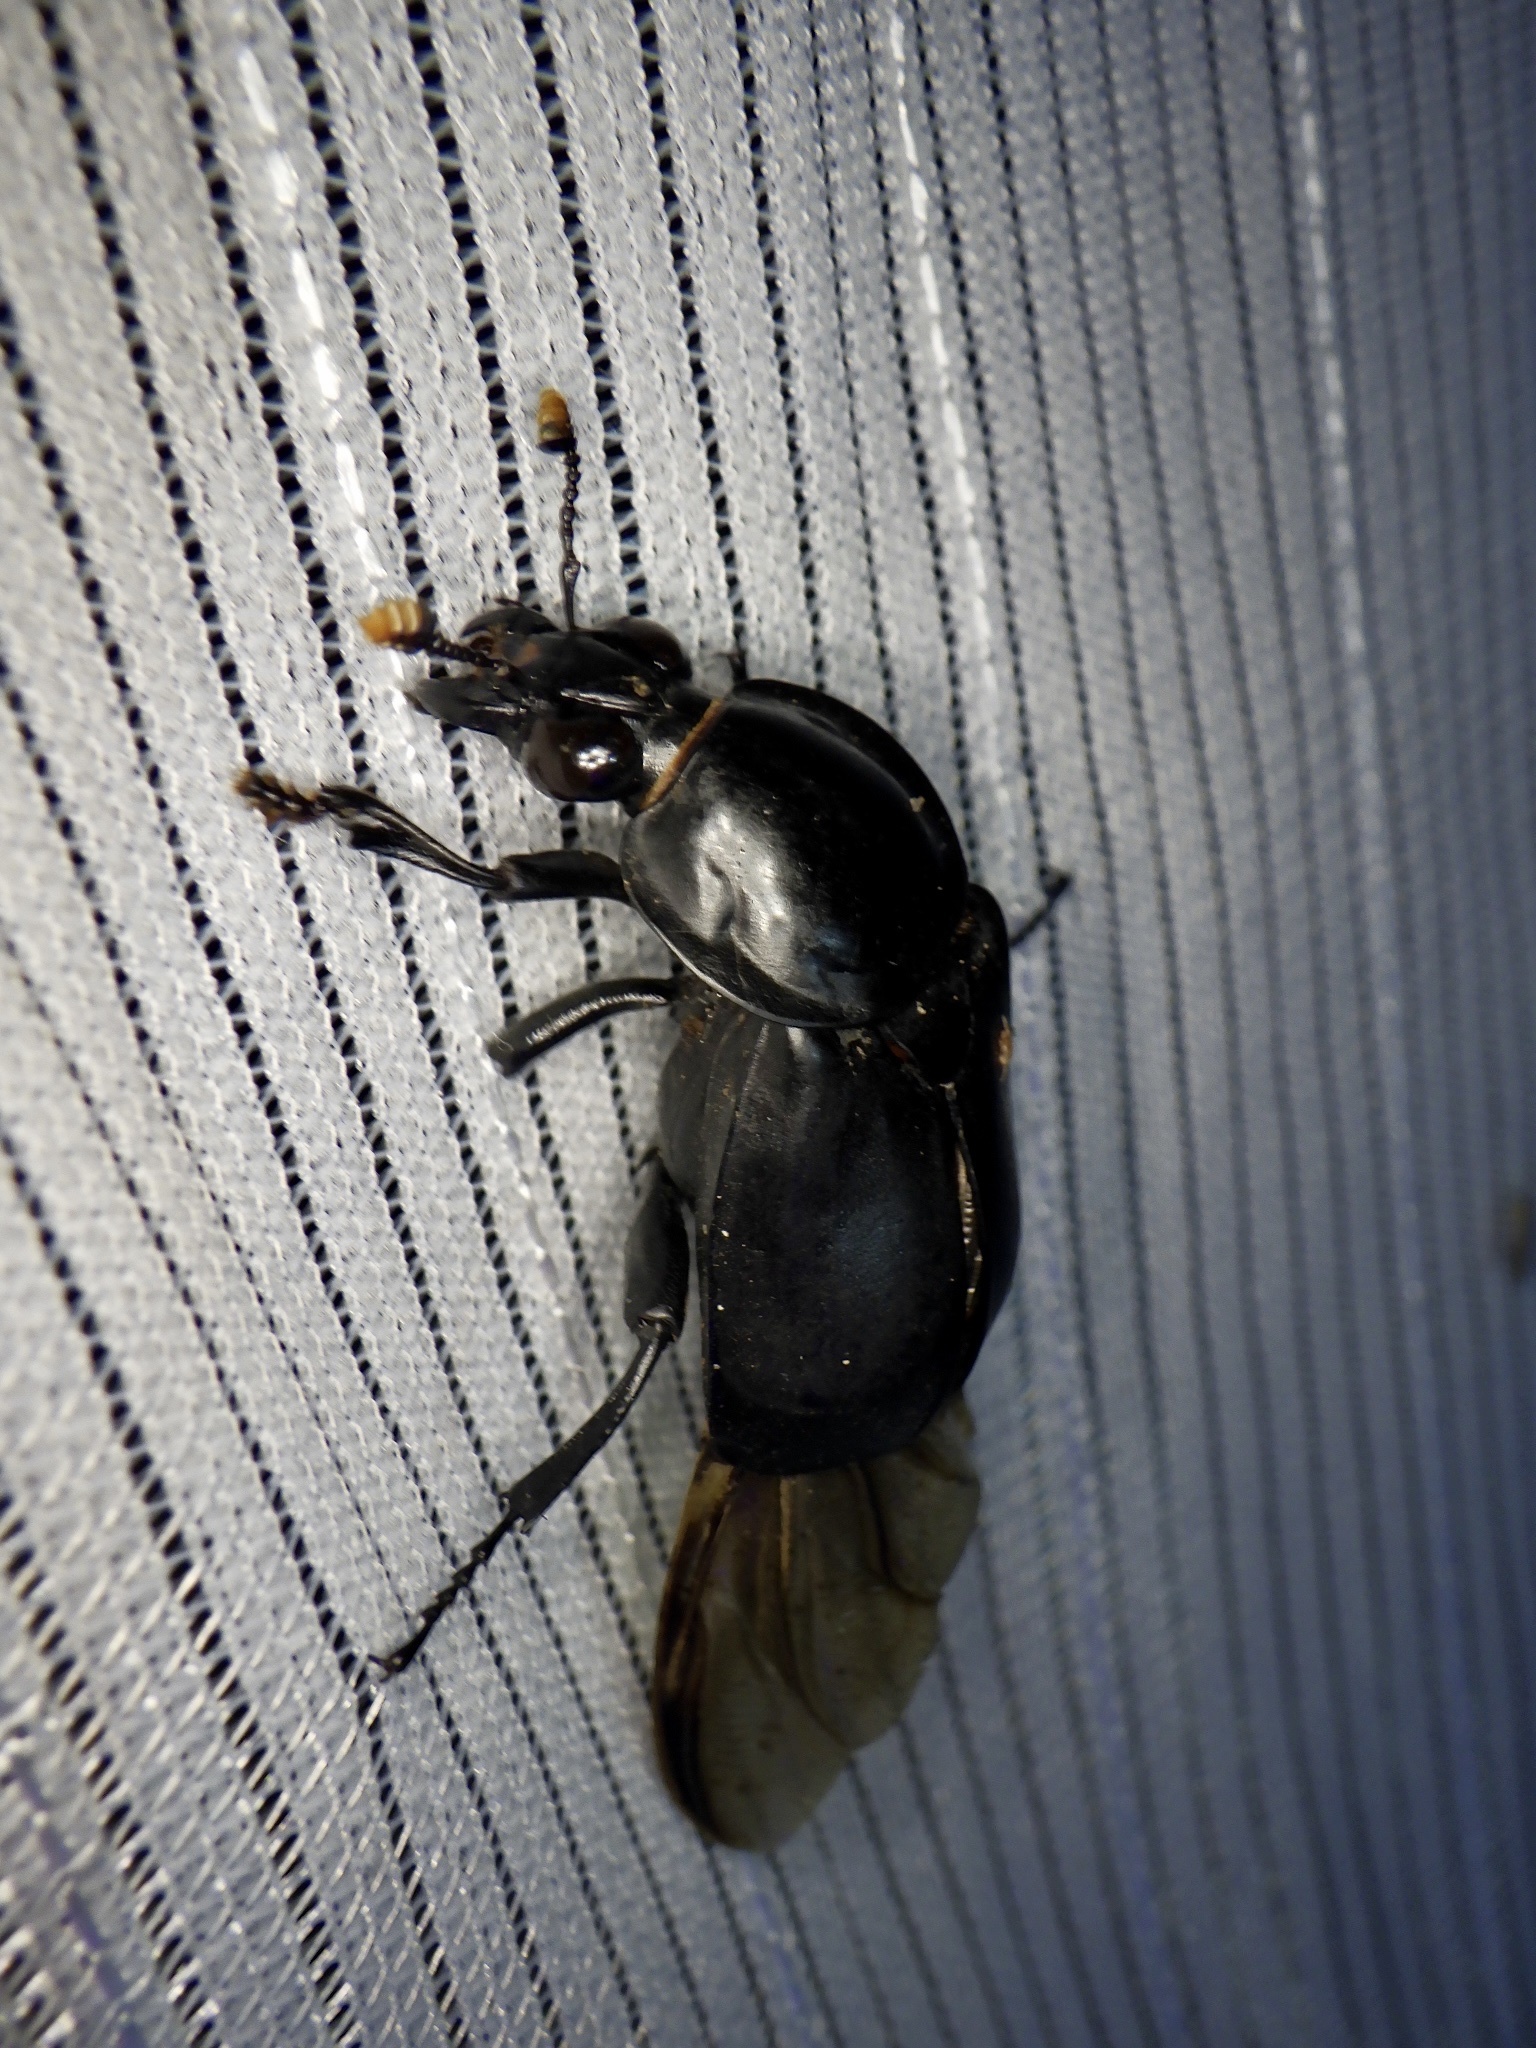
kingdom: Animalia
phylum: Arthropoda
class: Insecta
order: Coleoptera
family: Staphylinidae
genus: Nicrophorus
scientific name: Nicrophorus concolor
